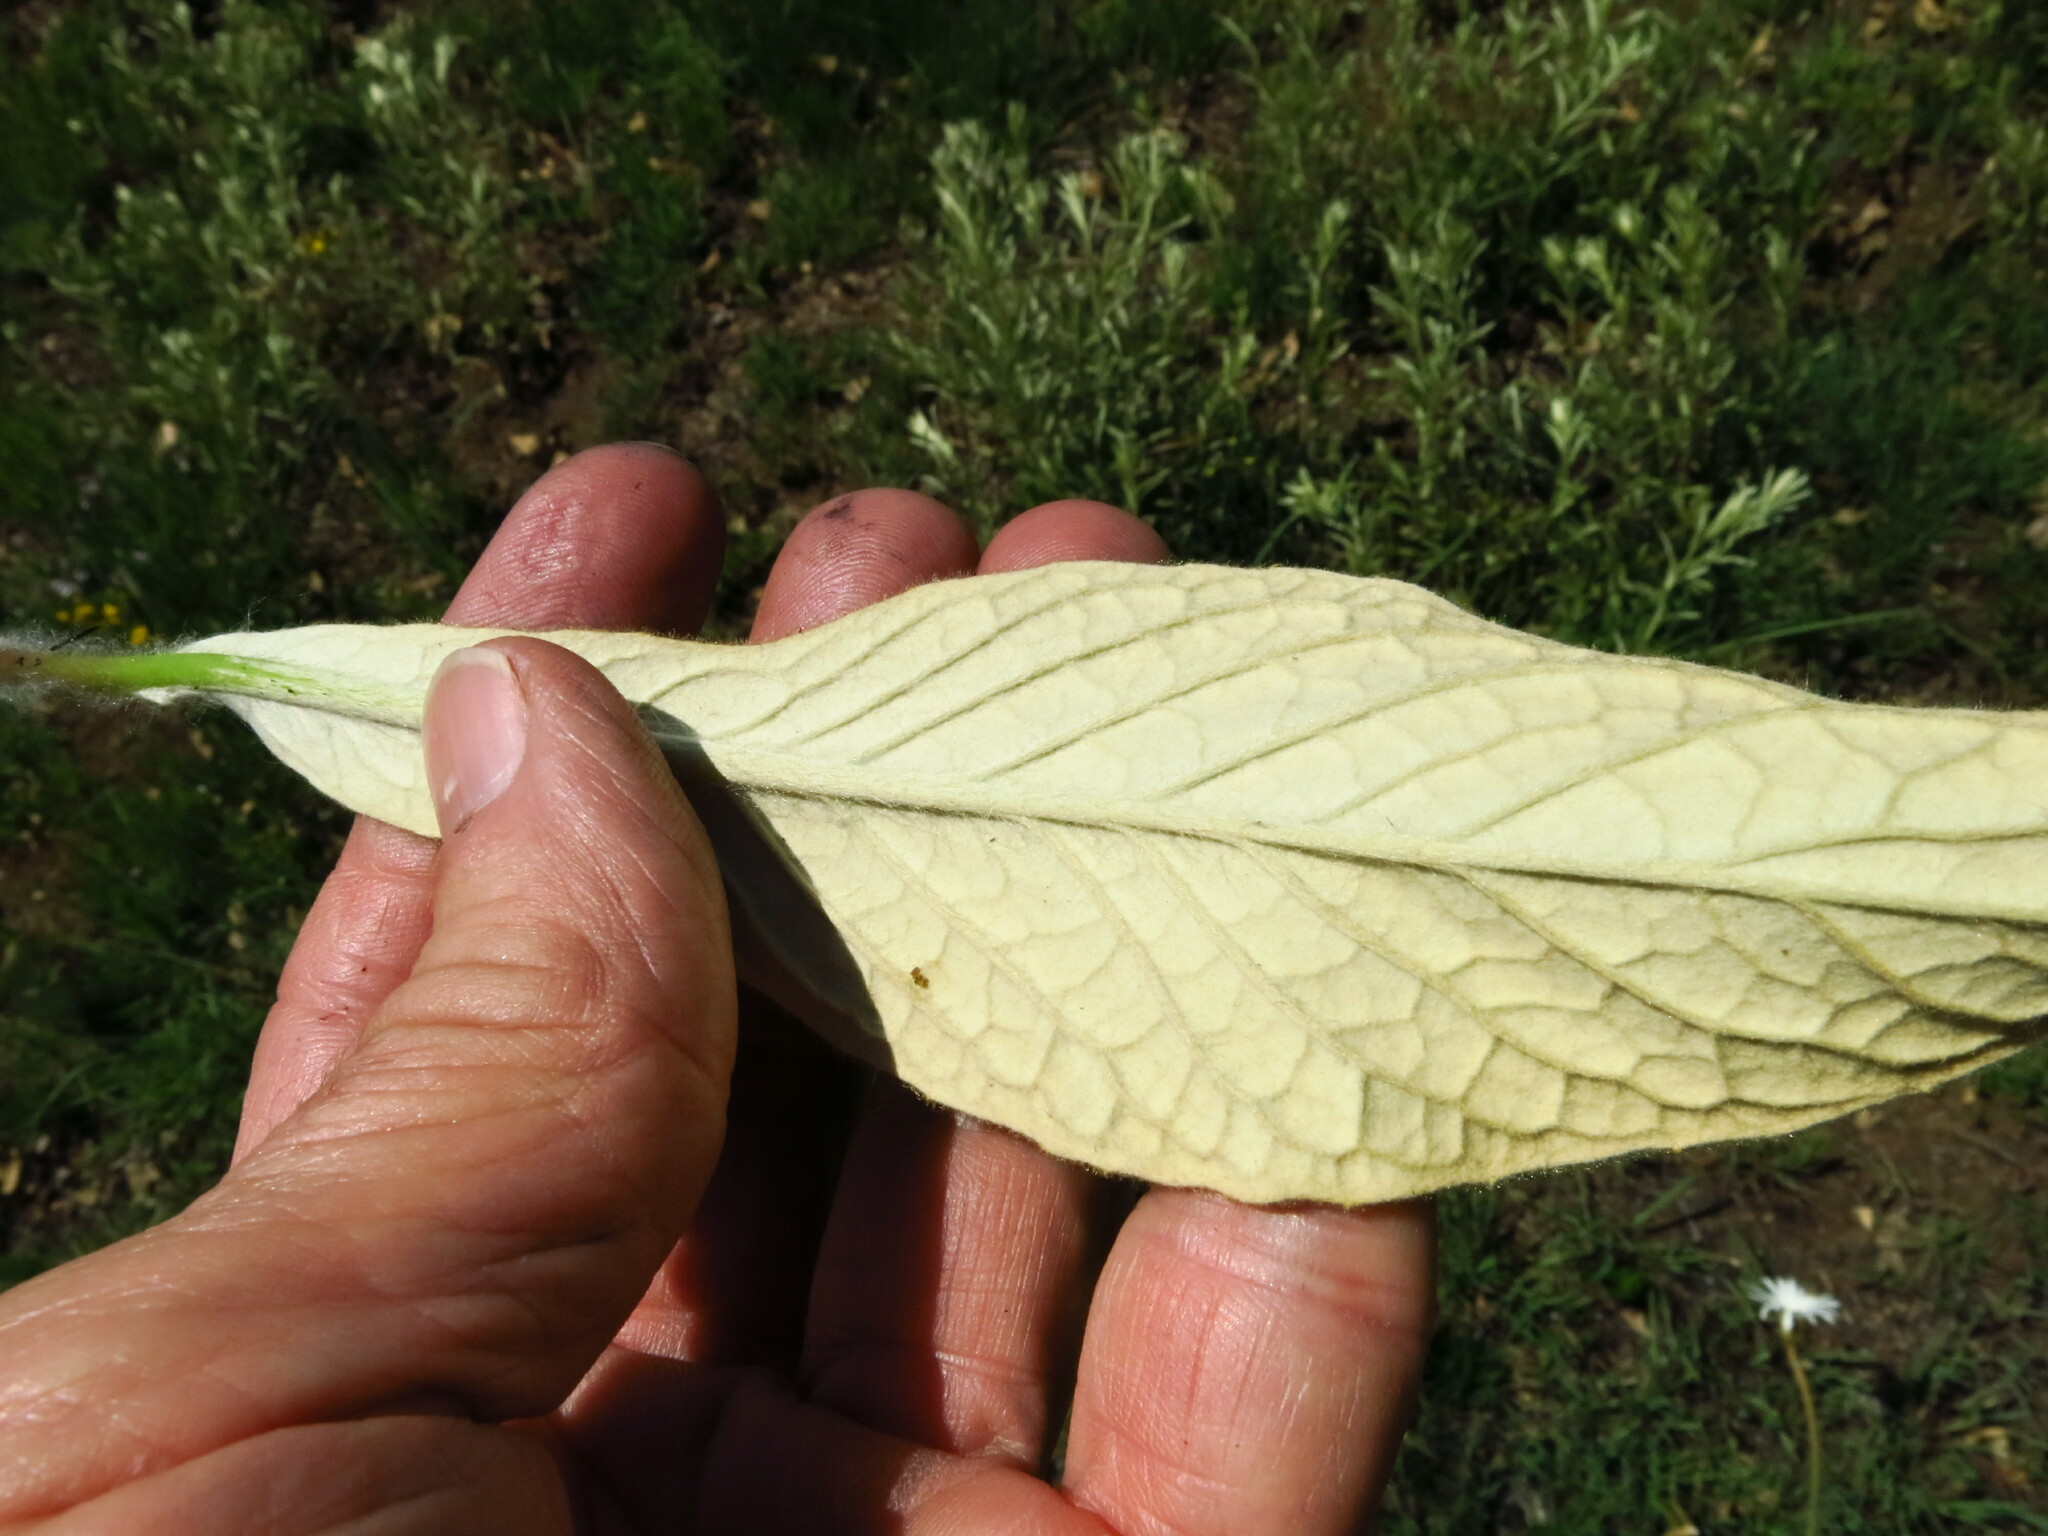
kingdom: Plantae
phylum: Tracheophyta
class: Magnoliopsida
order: Asterales
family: Asteraceae
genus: Gerbera
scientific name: Gerbera ambigua
